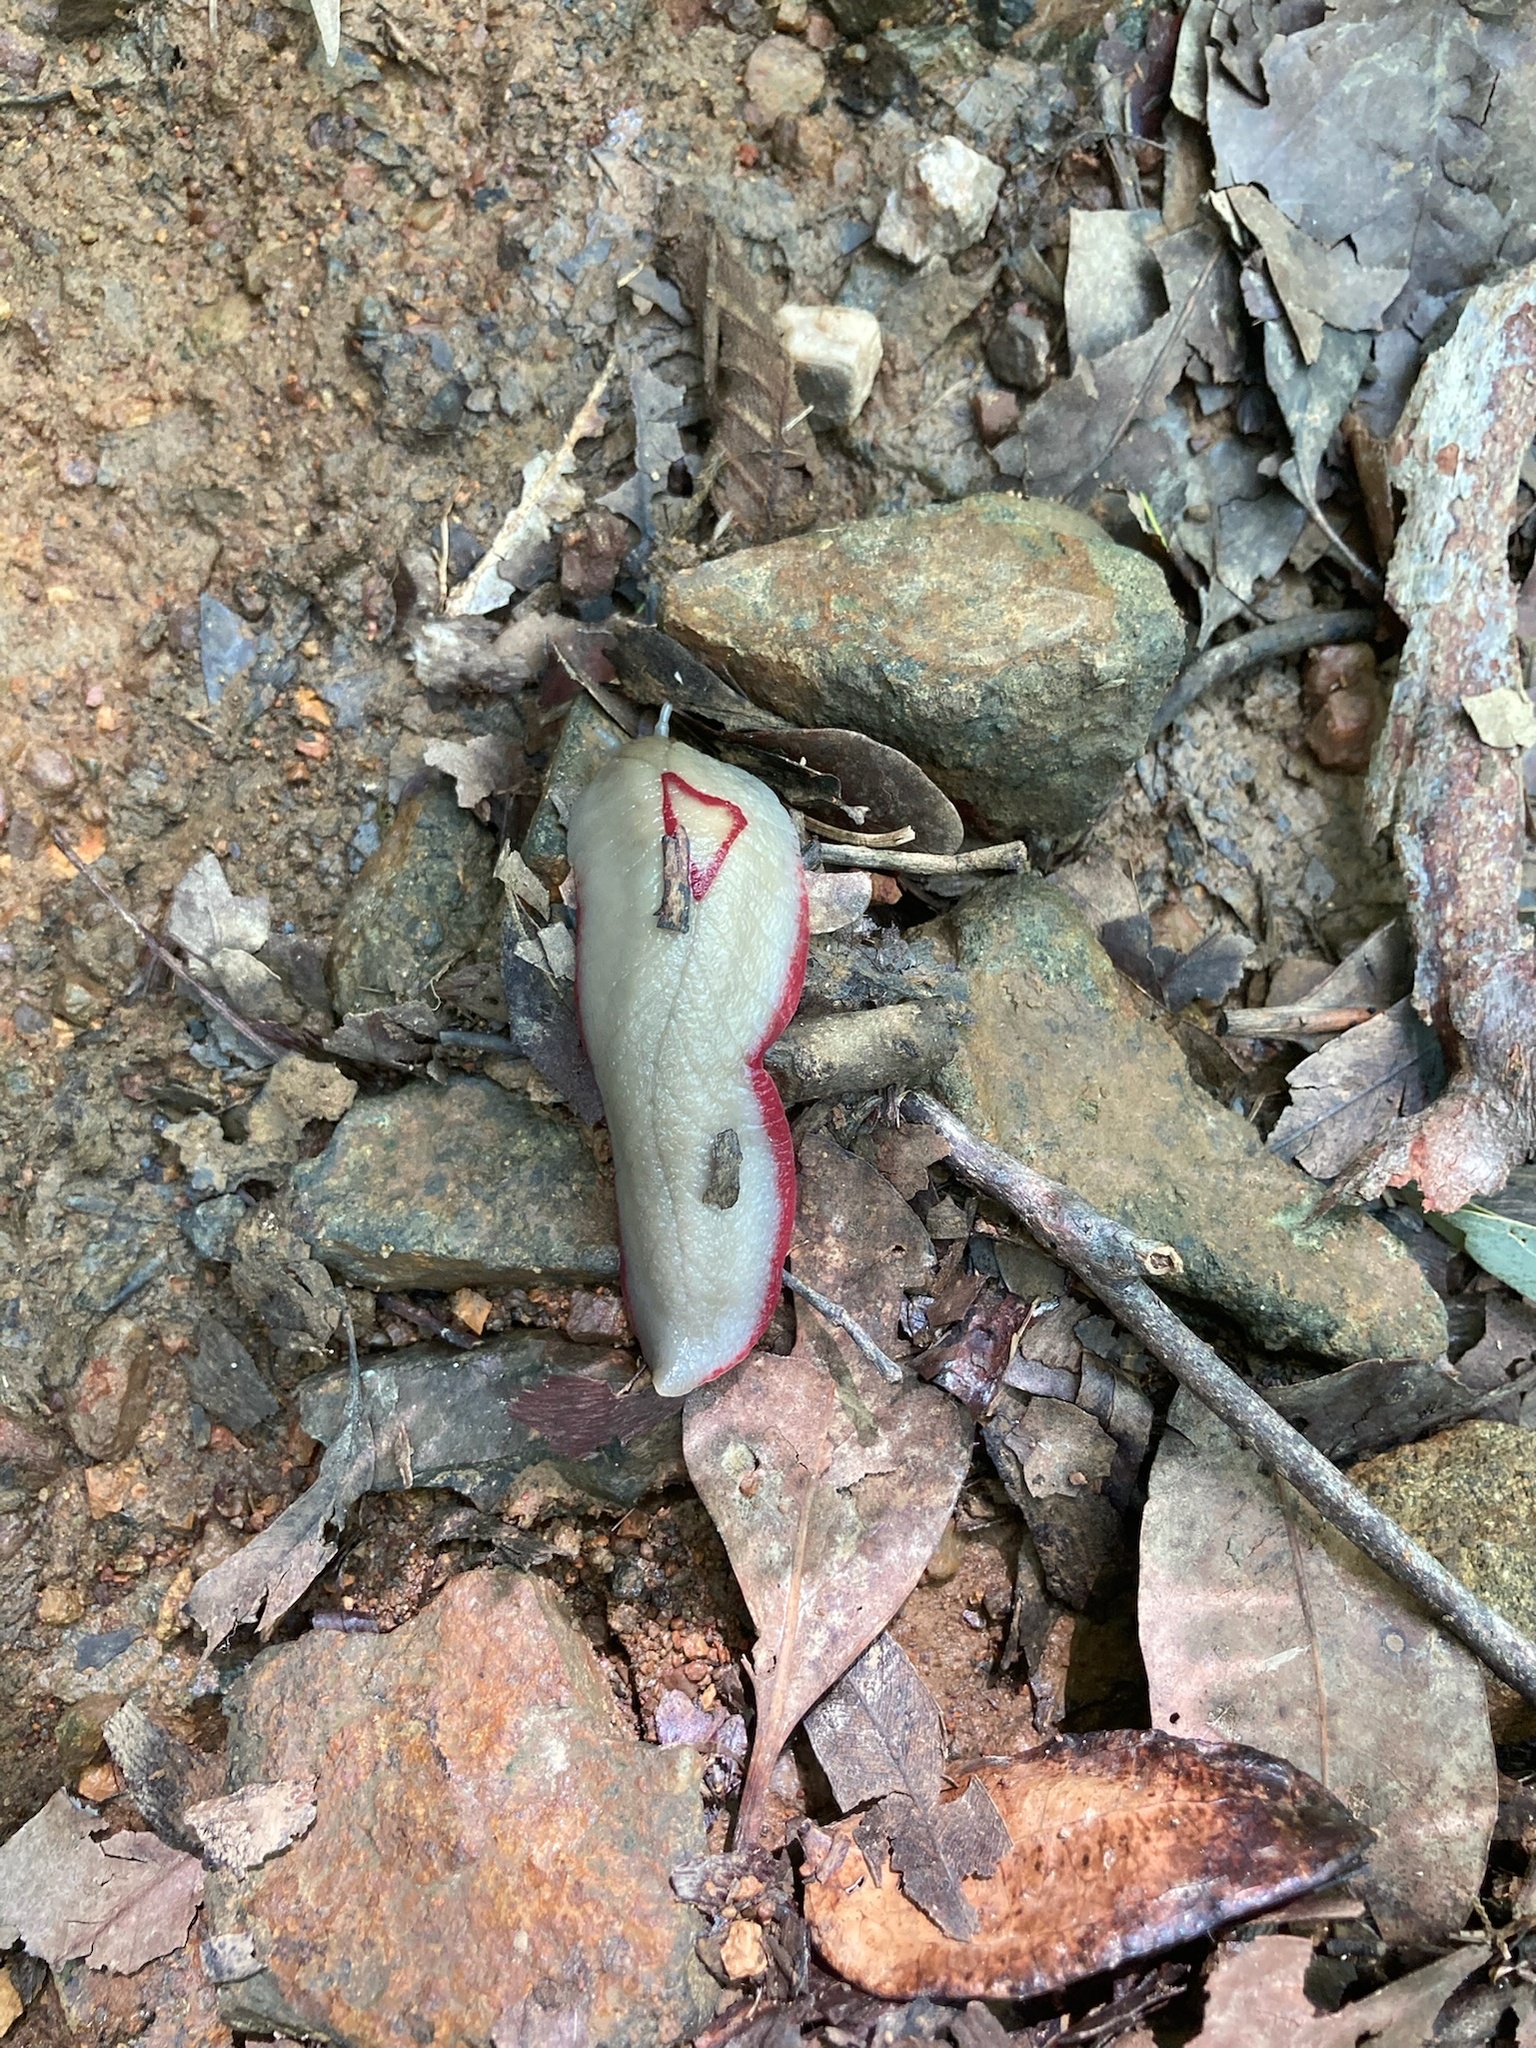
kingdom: Animalia
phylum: Mollusca
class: Gastropoda
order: Stylommatophora
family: Athoracophoridae
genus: Triboniophorus
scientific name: Triboniophorus graeffei
